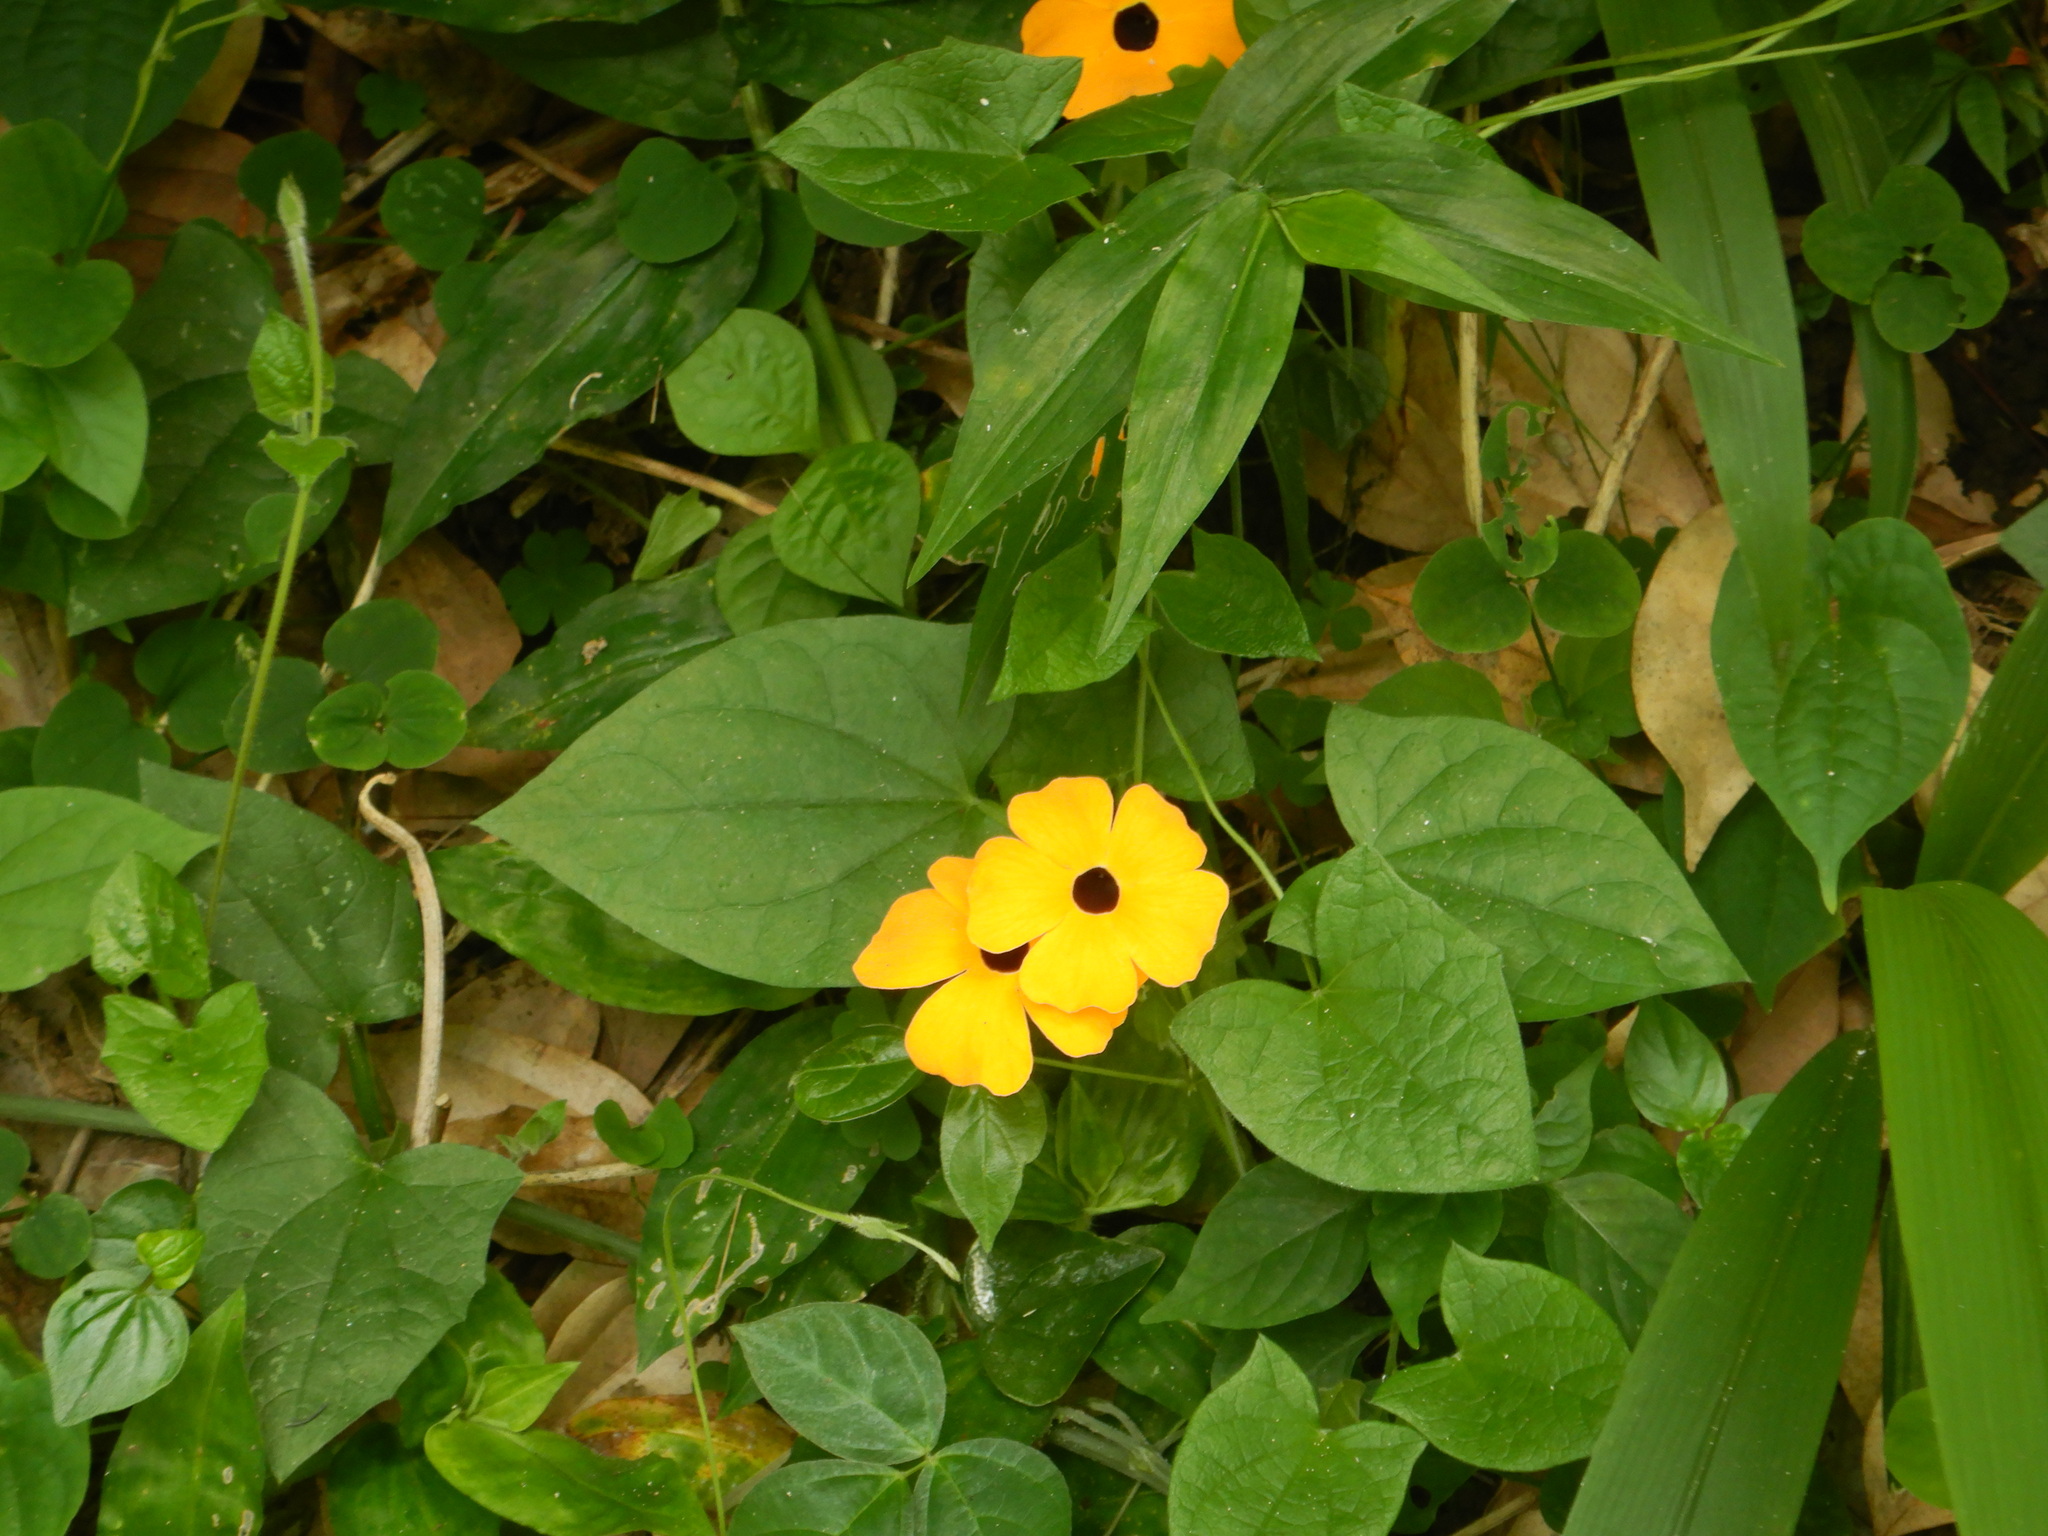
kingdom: Plantae
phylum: Tracheophyta
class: Magnoliopsida
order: Lamiales
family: Acanthaceae
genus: Thunbergia
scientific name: Thunbergia alata
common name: Blackeyed susan vine
